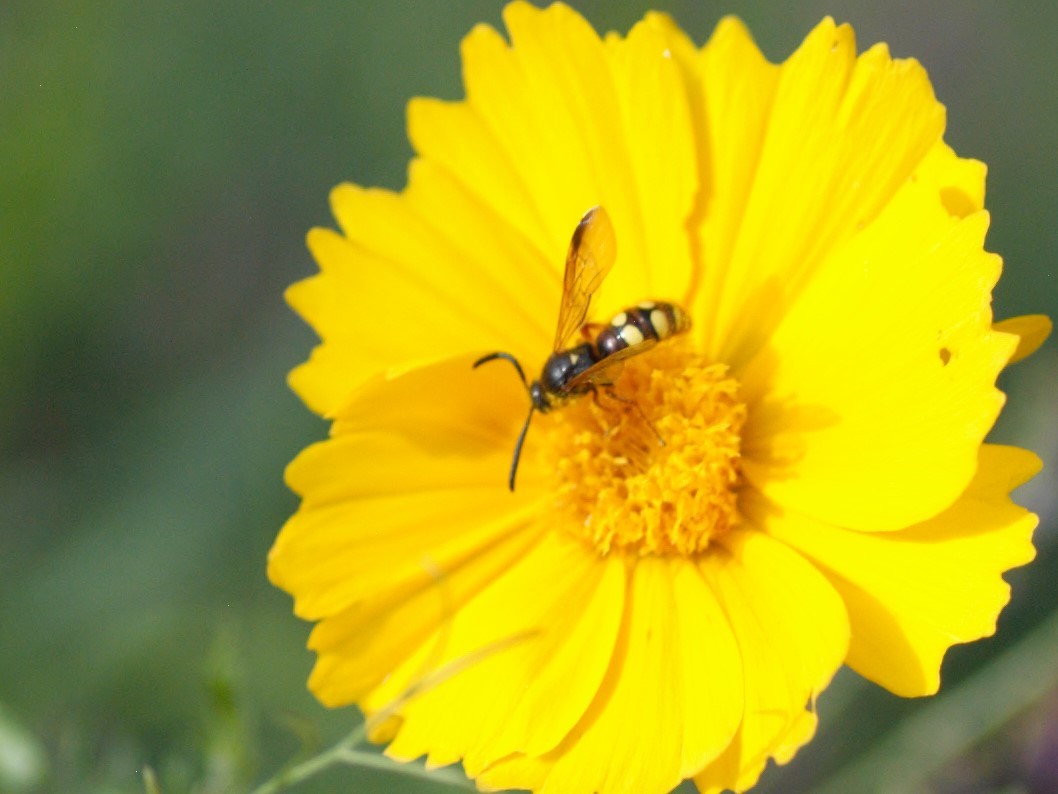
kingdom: Animalia
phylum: Arthropoda
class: Insecta
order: Hymenoptera
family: Scoliidae
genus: Scolia
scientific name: Scolia nobilitata
